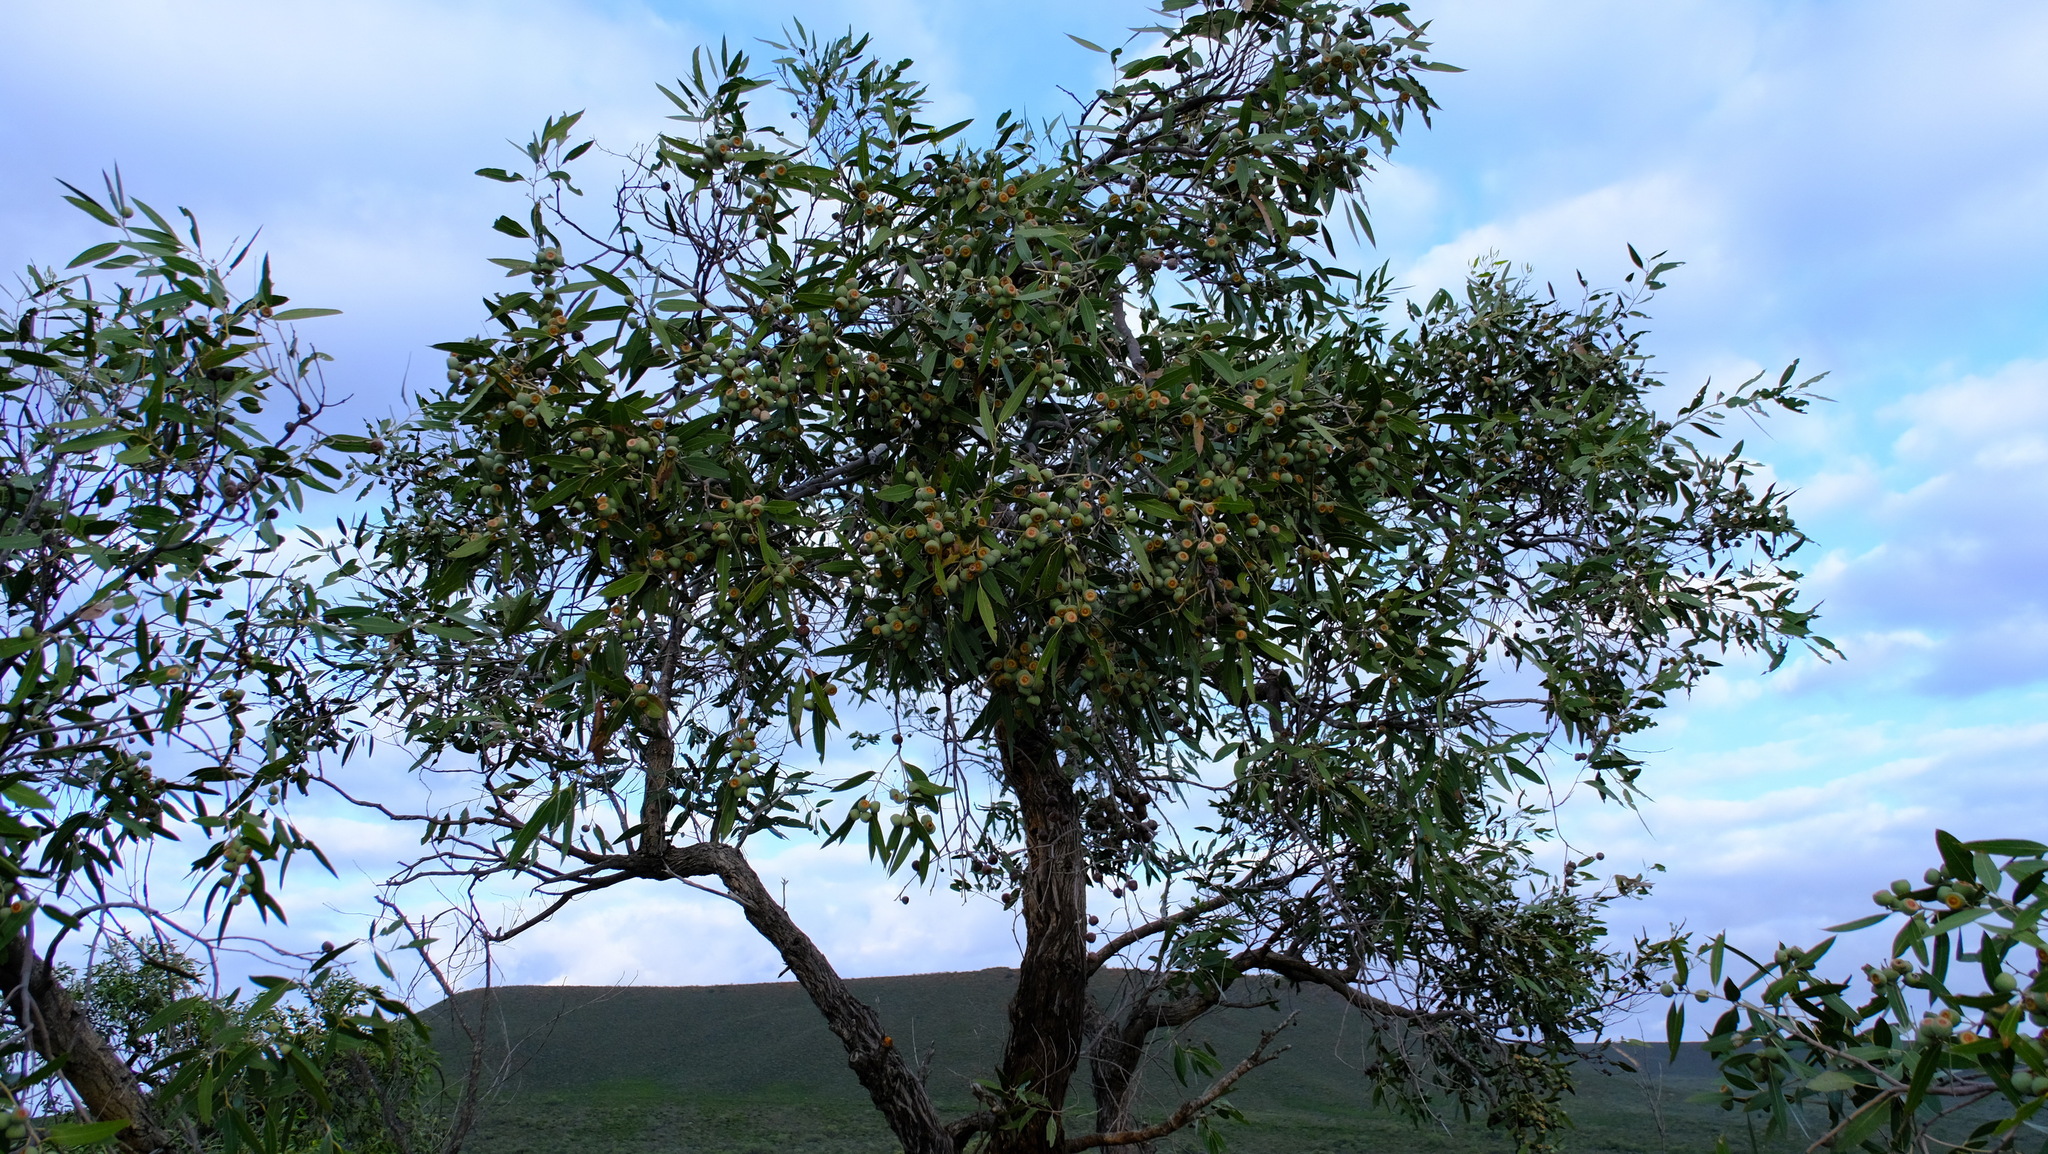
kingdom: Plantae
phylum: Tracheophyta
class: Magnoliopsida
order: Myrtales
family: Myrtaceae
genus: Eucalyptus
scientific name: Eucalyptus todtiana
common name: Coastal blackbutt
